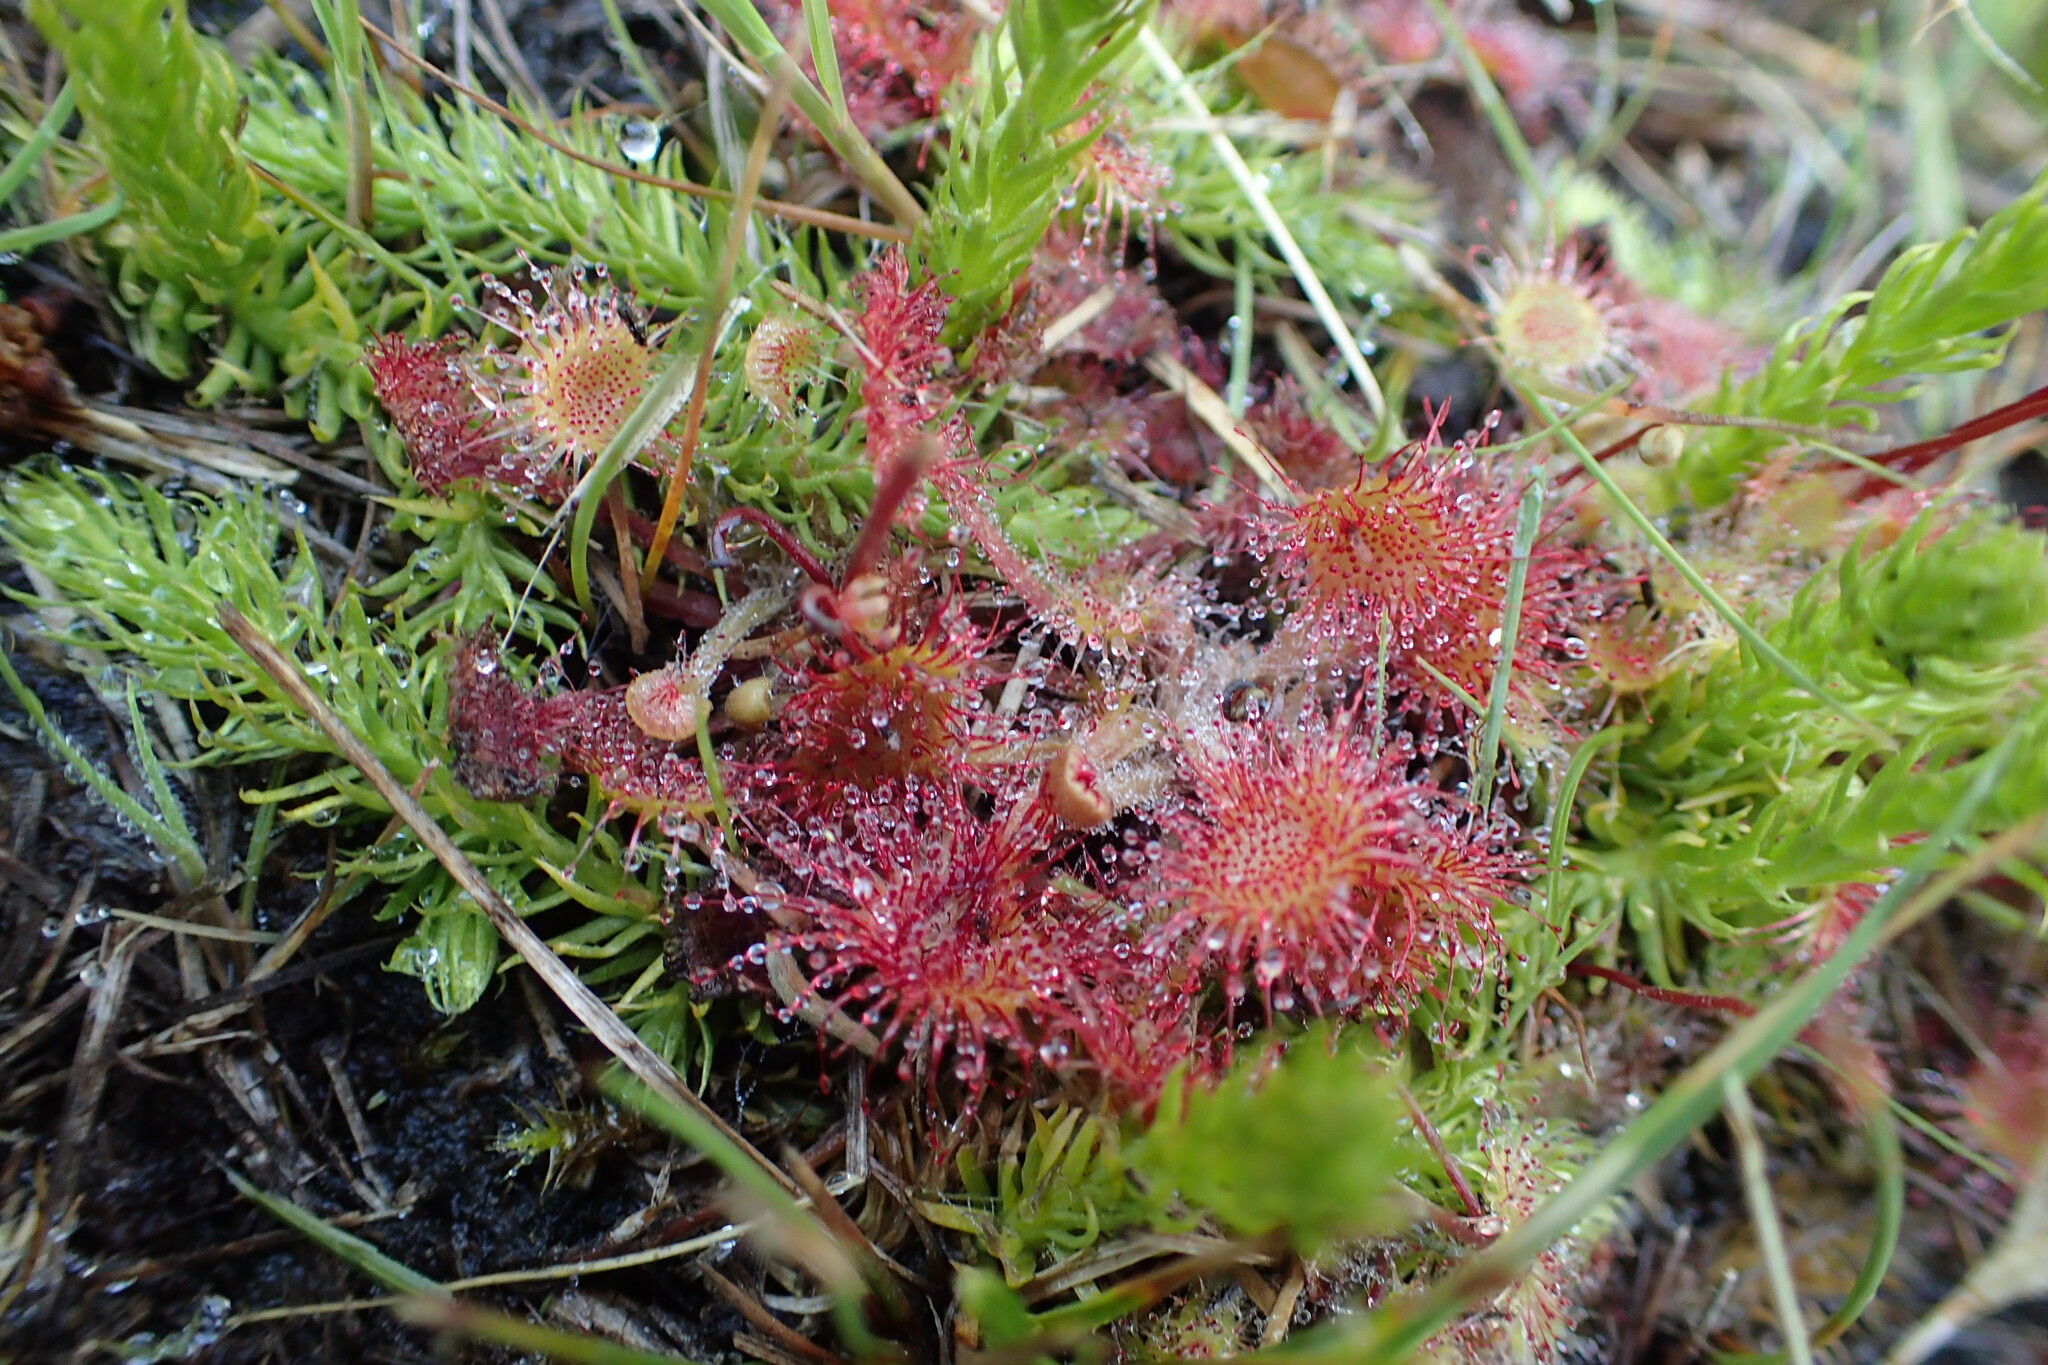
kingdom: Plantae
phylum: Tracheophyta
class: Magnoliopsida
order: Caryophyllales
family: Droseraceae
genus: Drosera
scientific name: Drosera rotundifolia
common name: Round-leaved sundew
